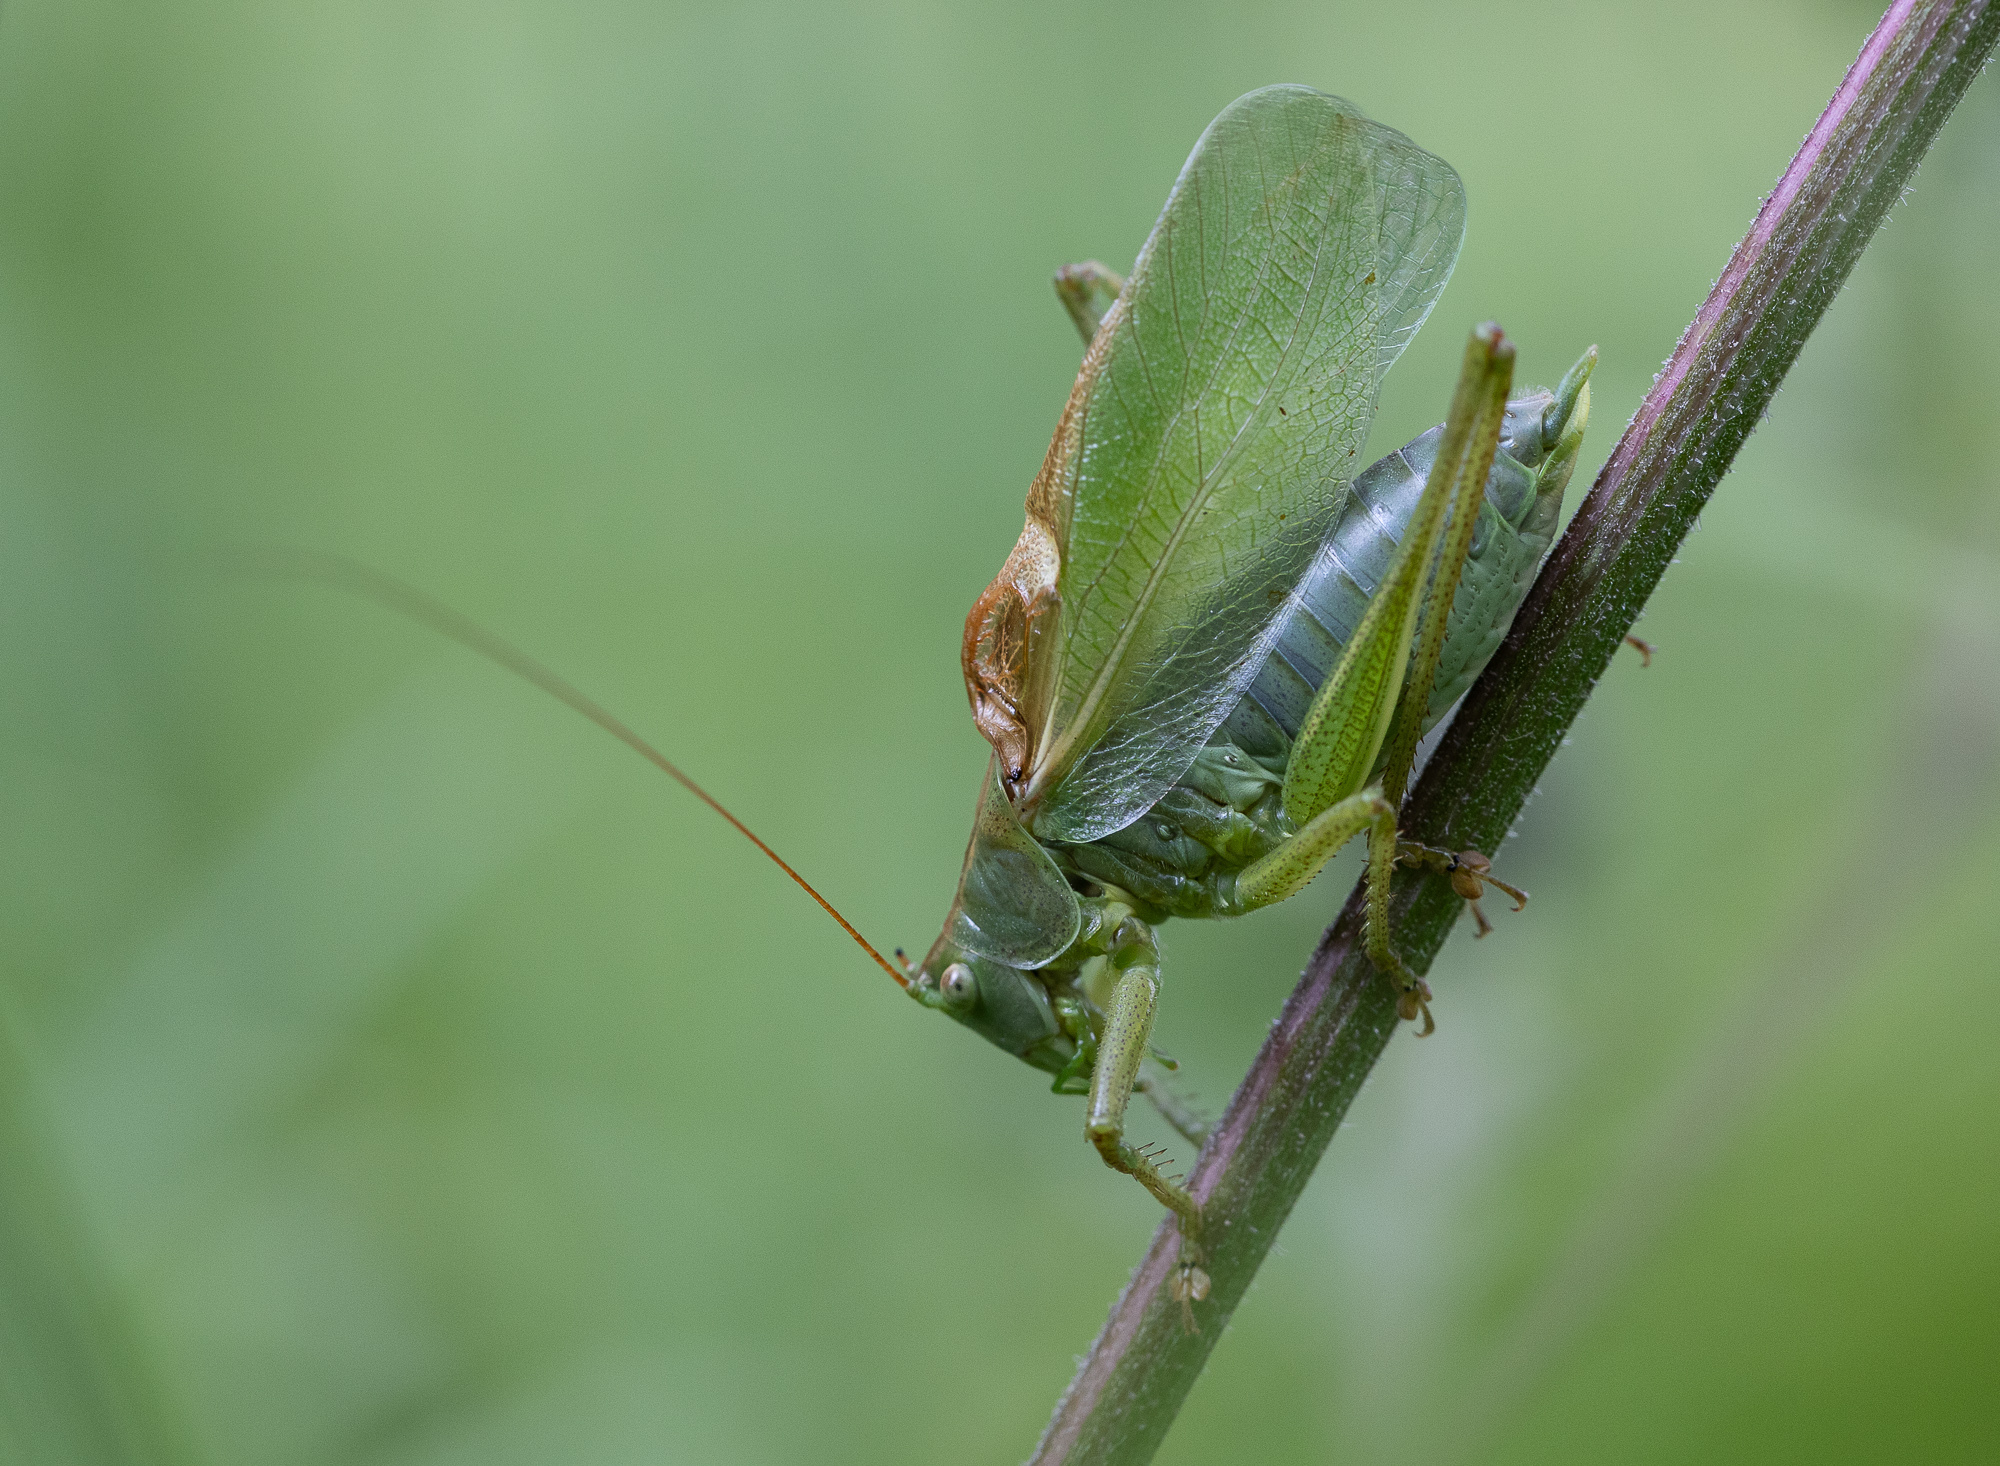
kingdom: Animalia
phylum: Arthropoda
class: Insecta
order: Orthoptera
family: Tettigoniidae
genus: Tettigonia
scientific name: Tettigonia cantans
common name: Upland green bush-cricket
